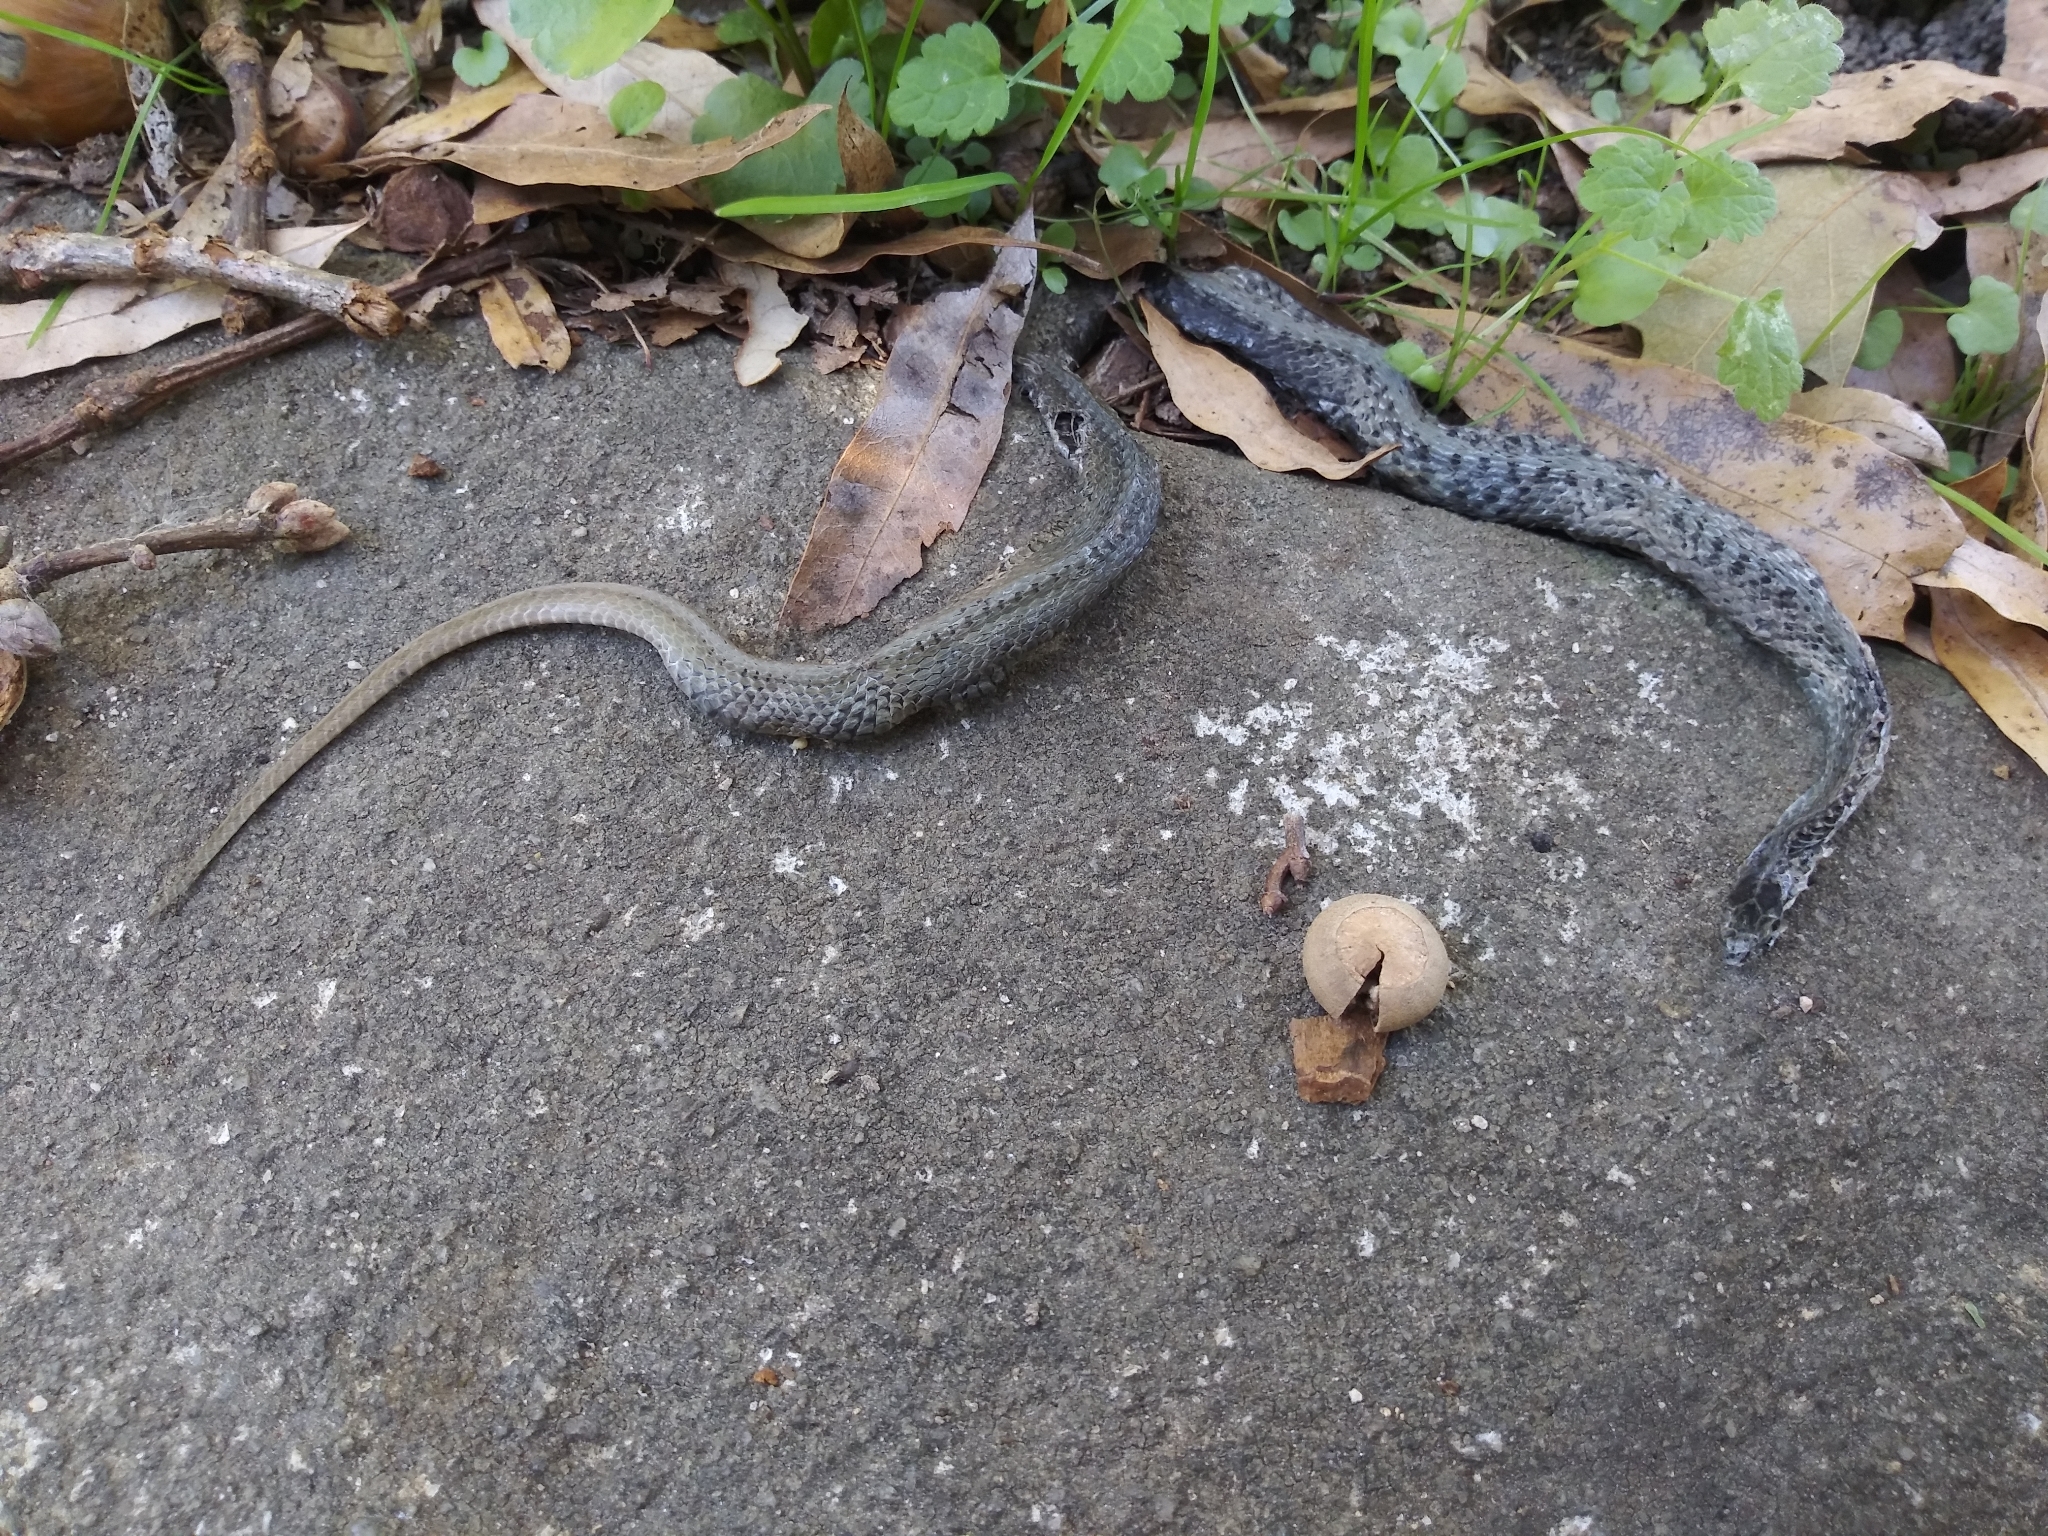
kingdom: Animalia
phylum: Chordata
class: Squamata
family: Colubridae
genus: Storeria
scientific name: Storeria dekayi
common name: (dekay’s) brown snake
